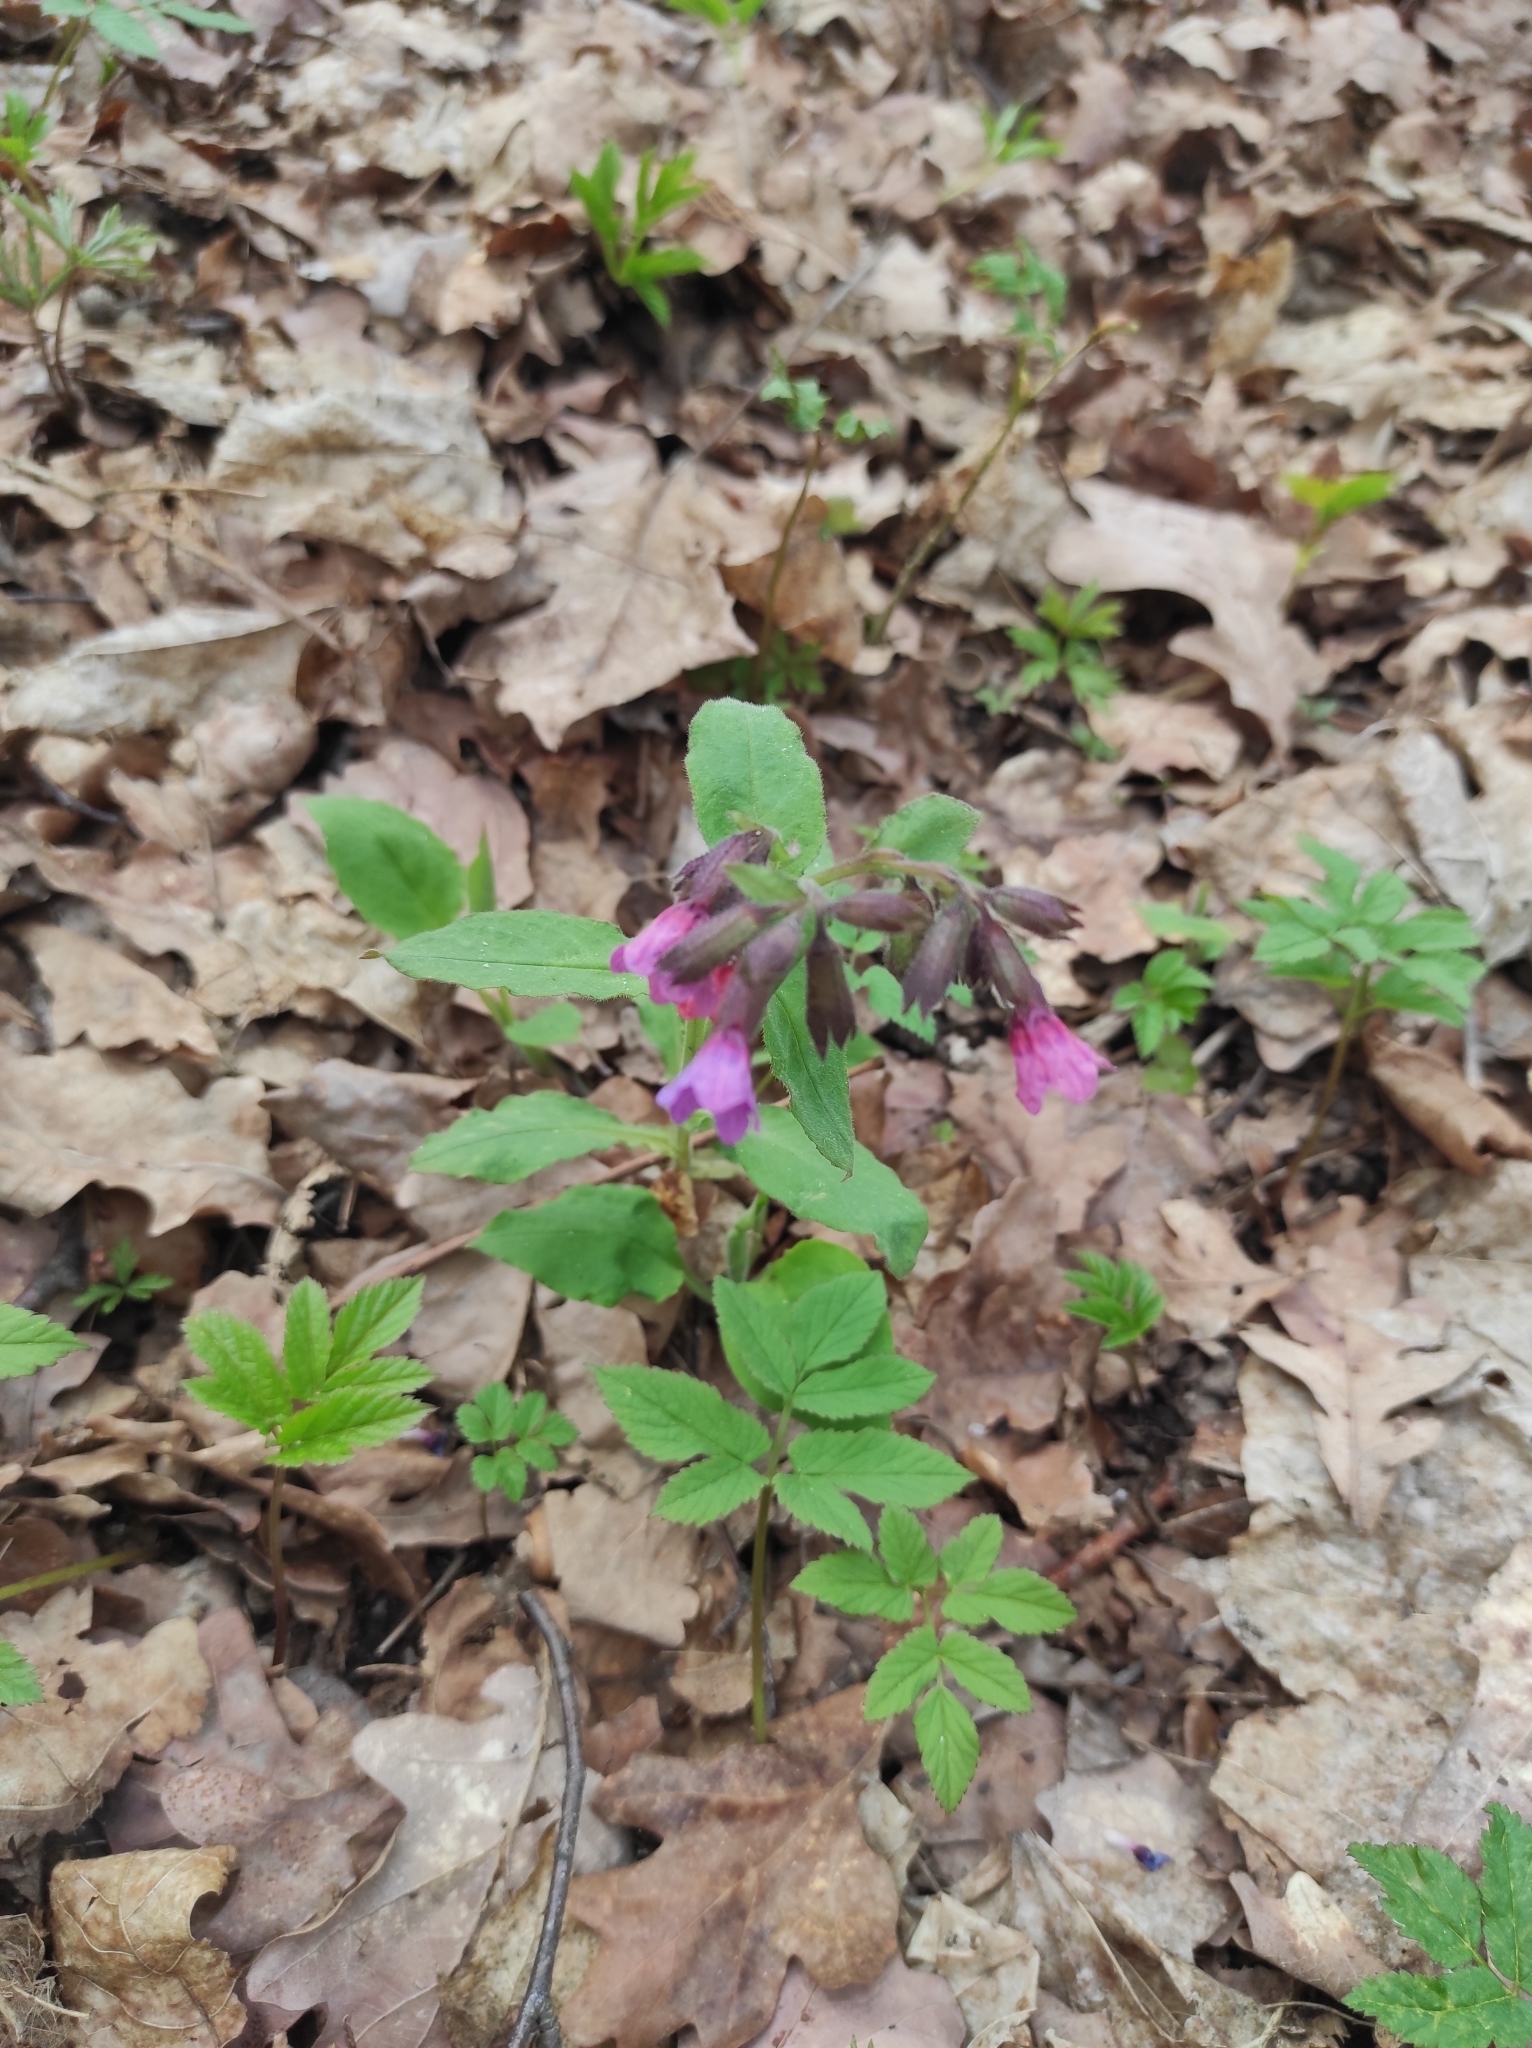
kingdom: Plantae
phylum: Tracheophyta
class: Magnoliopsida
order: Boraginales
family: Boraginaceae
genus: Pulmonaria
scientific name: Pulmonaria obscura
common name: Suffolk lungwort
